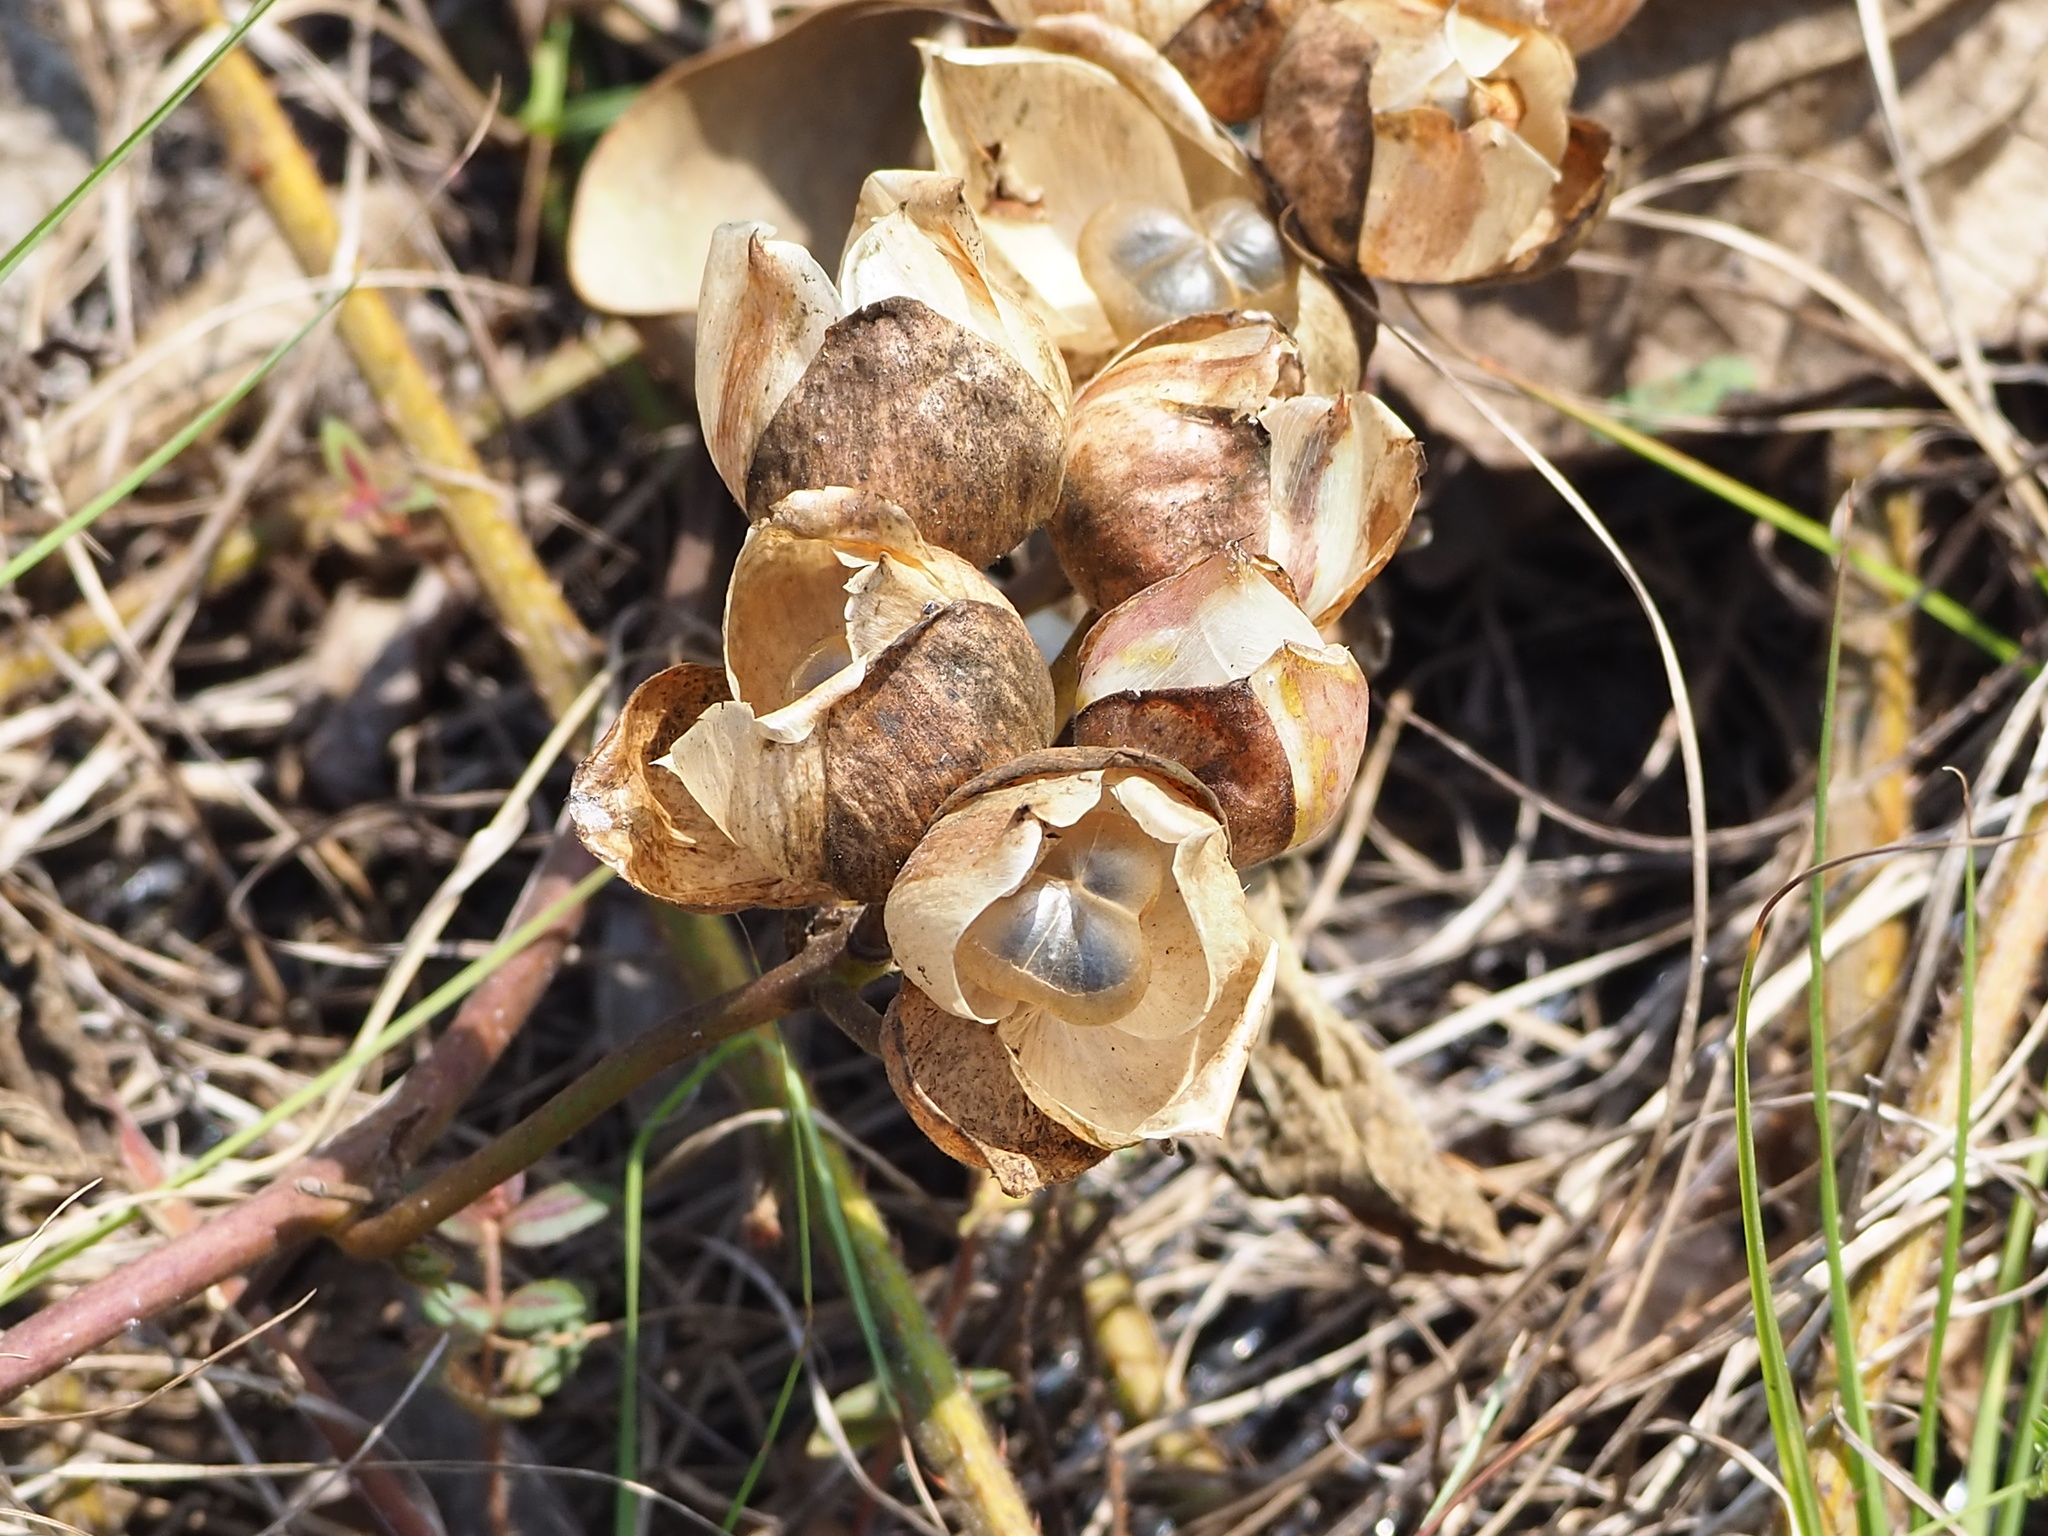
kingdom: Plantae
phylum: Tracheophyta
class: Magnoliopsida
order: Solanales
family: Convolvulaceae
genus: Operculina
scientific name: Operculina turpethum
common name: Transparent wood-rose
